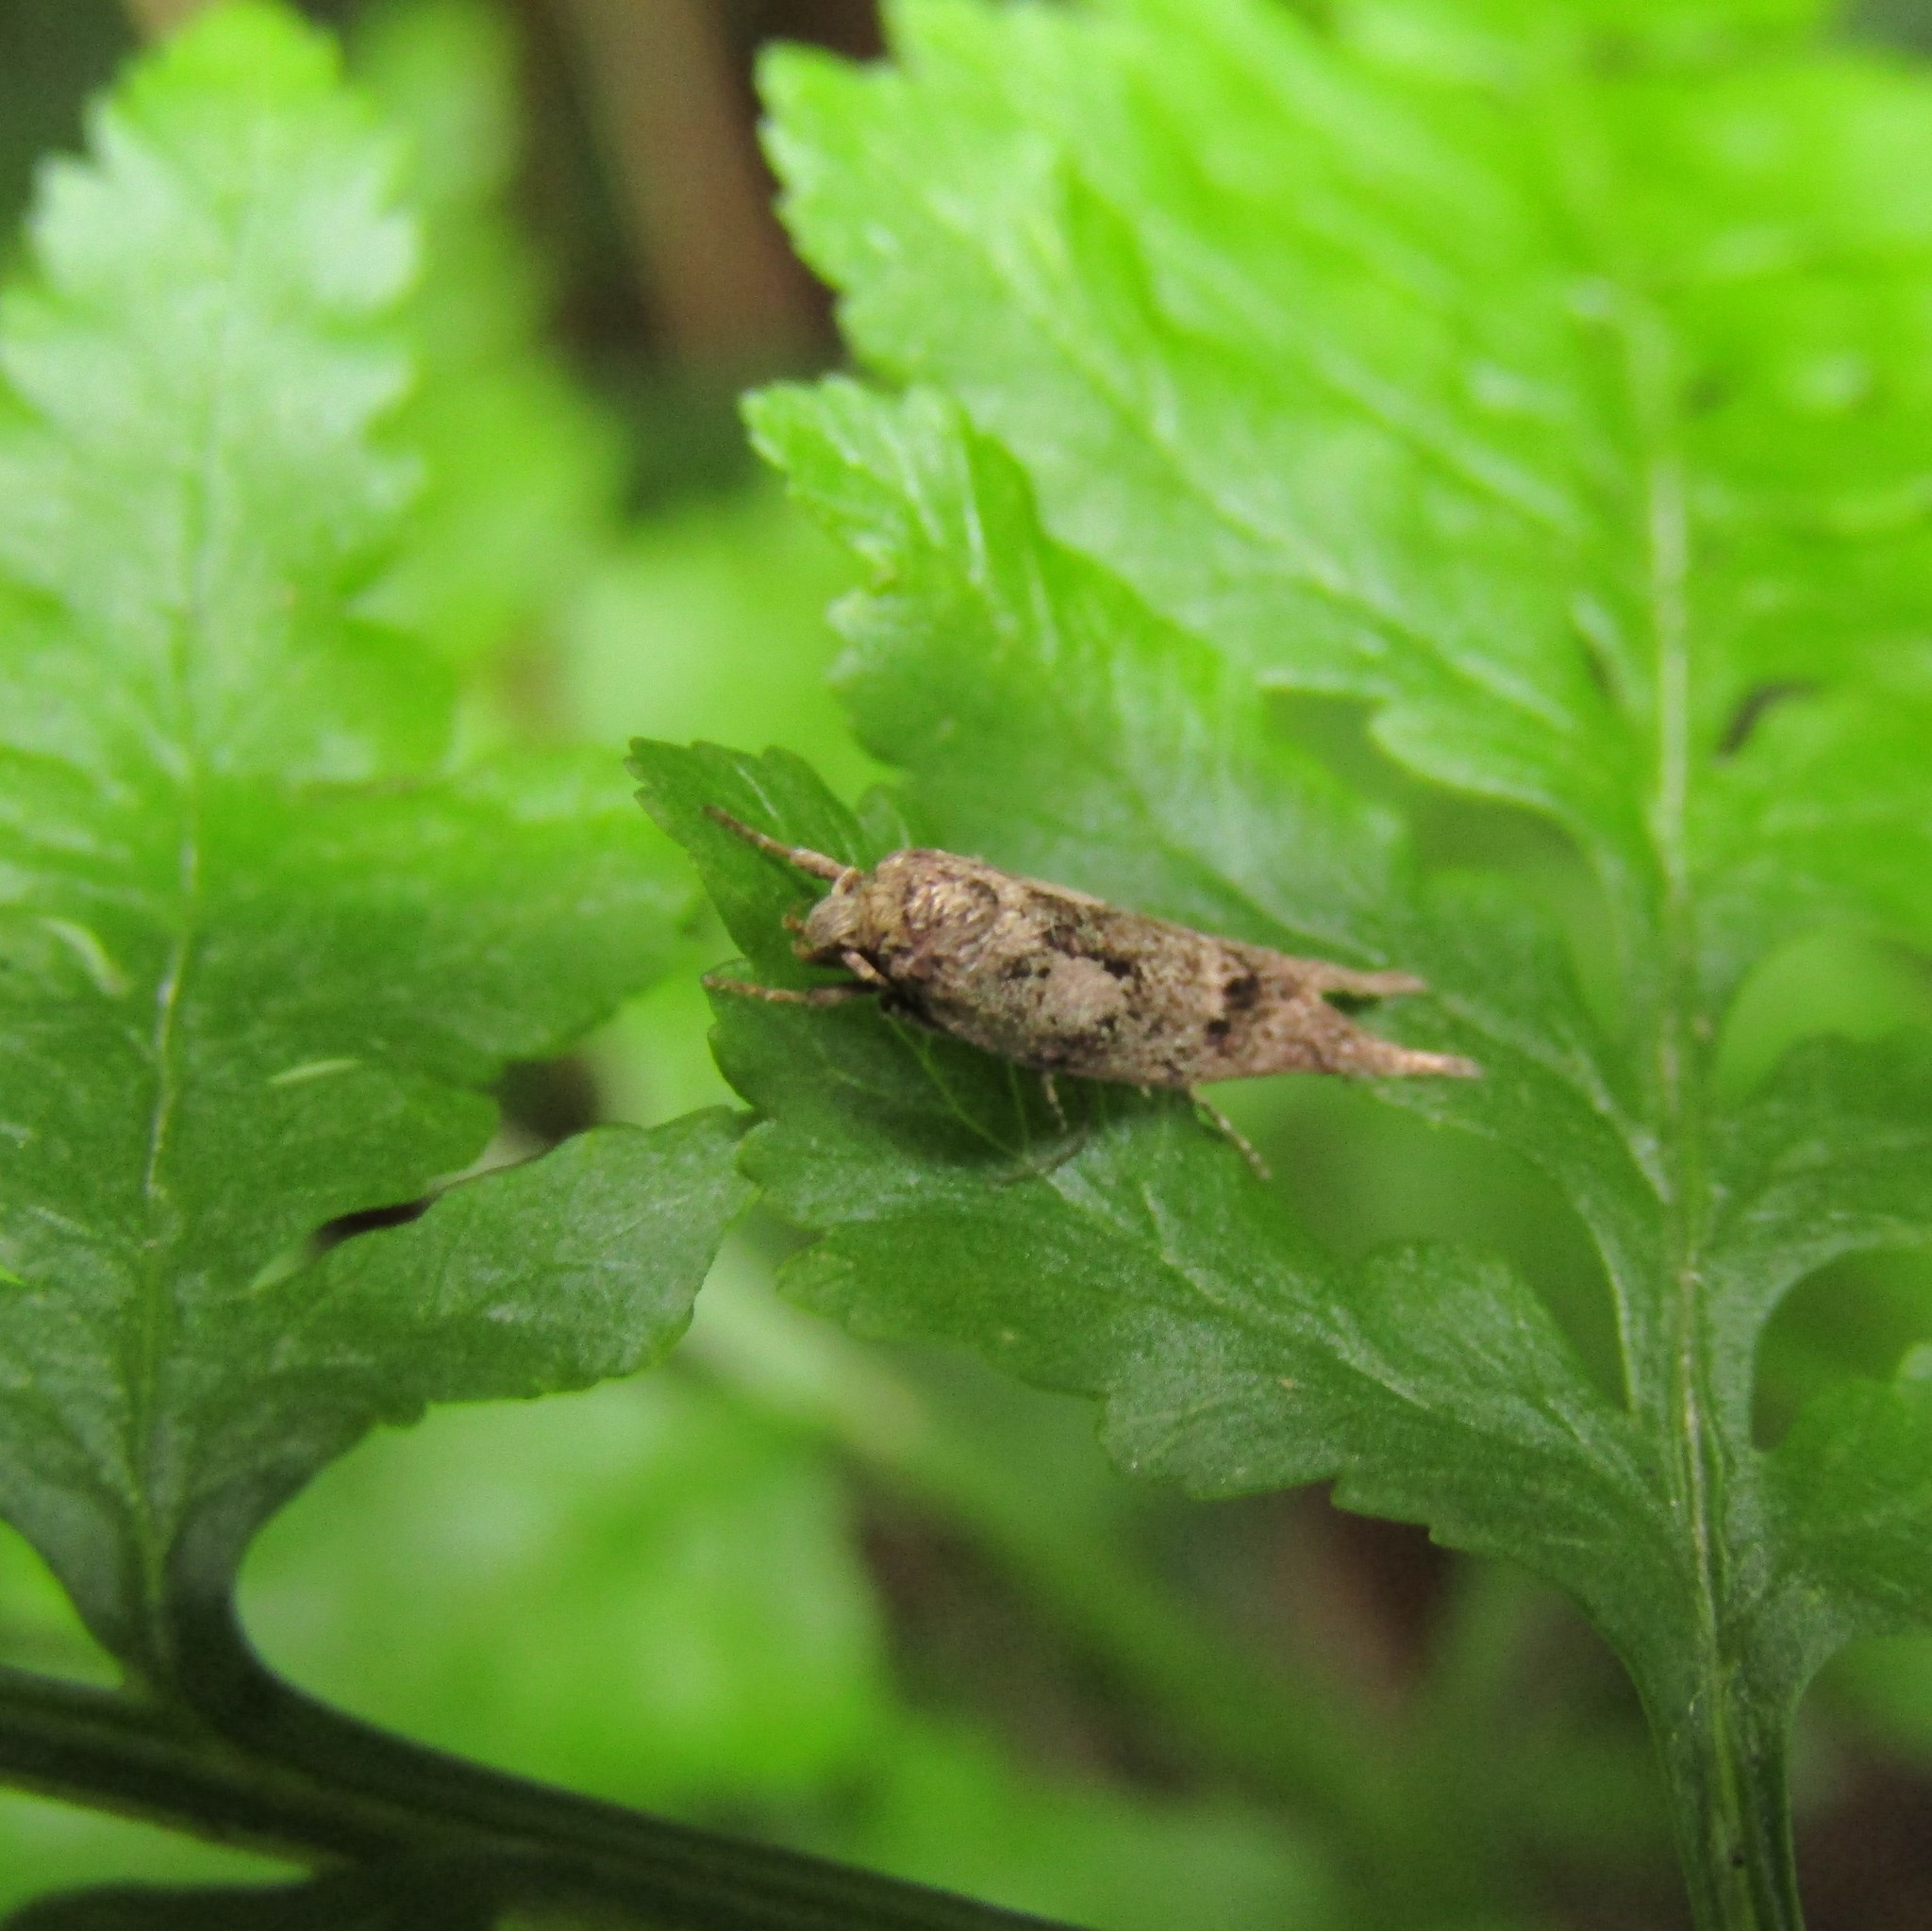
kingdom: Animalia
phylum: Arthropoda
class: Insecta
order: Lepidoptera
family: Oecophoridae
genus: Chersadaula
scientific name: Chersadaula ochrogastra
